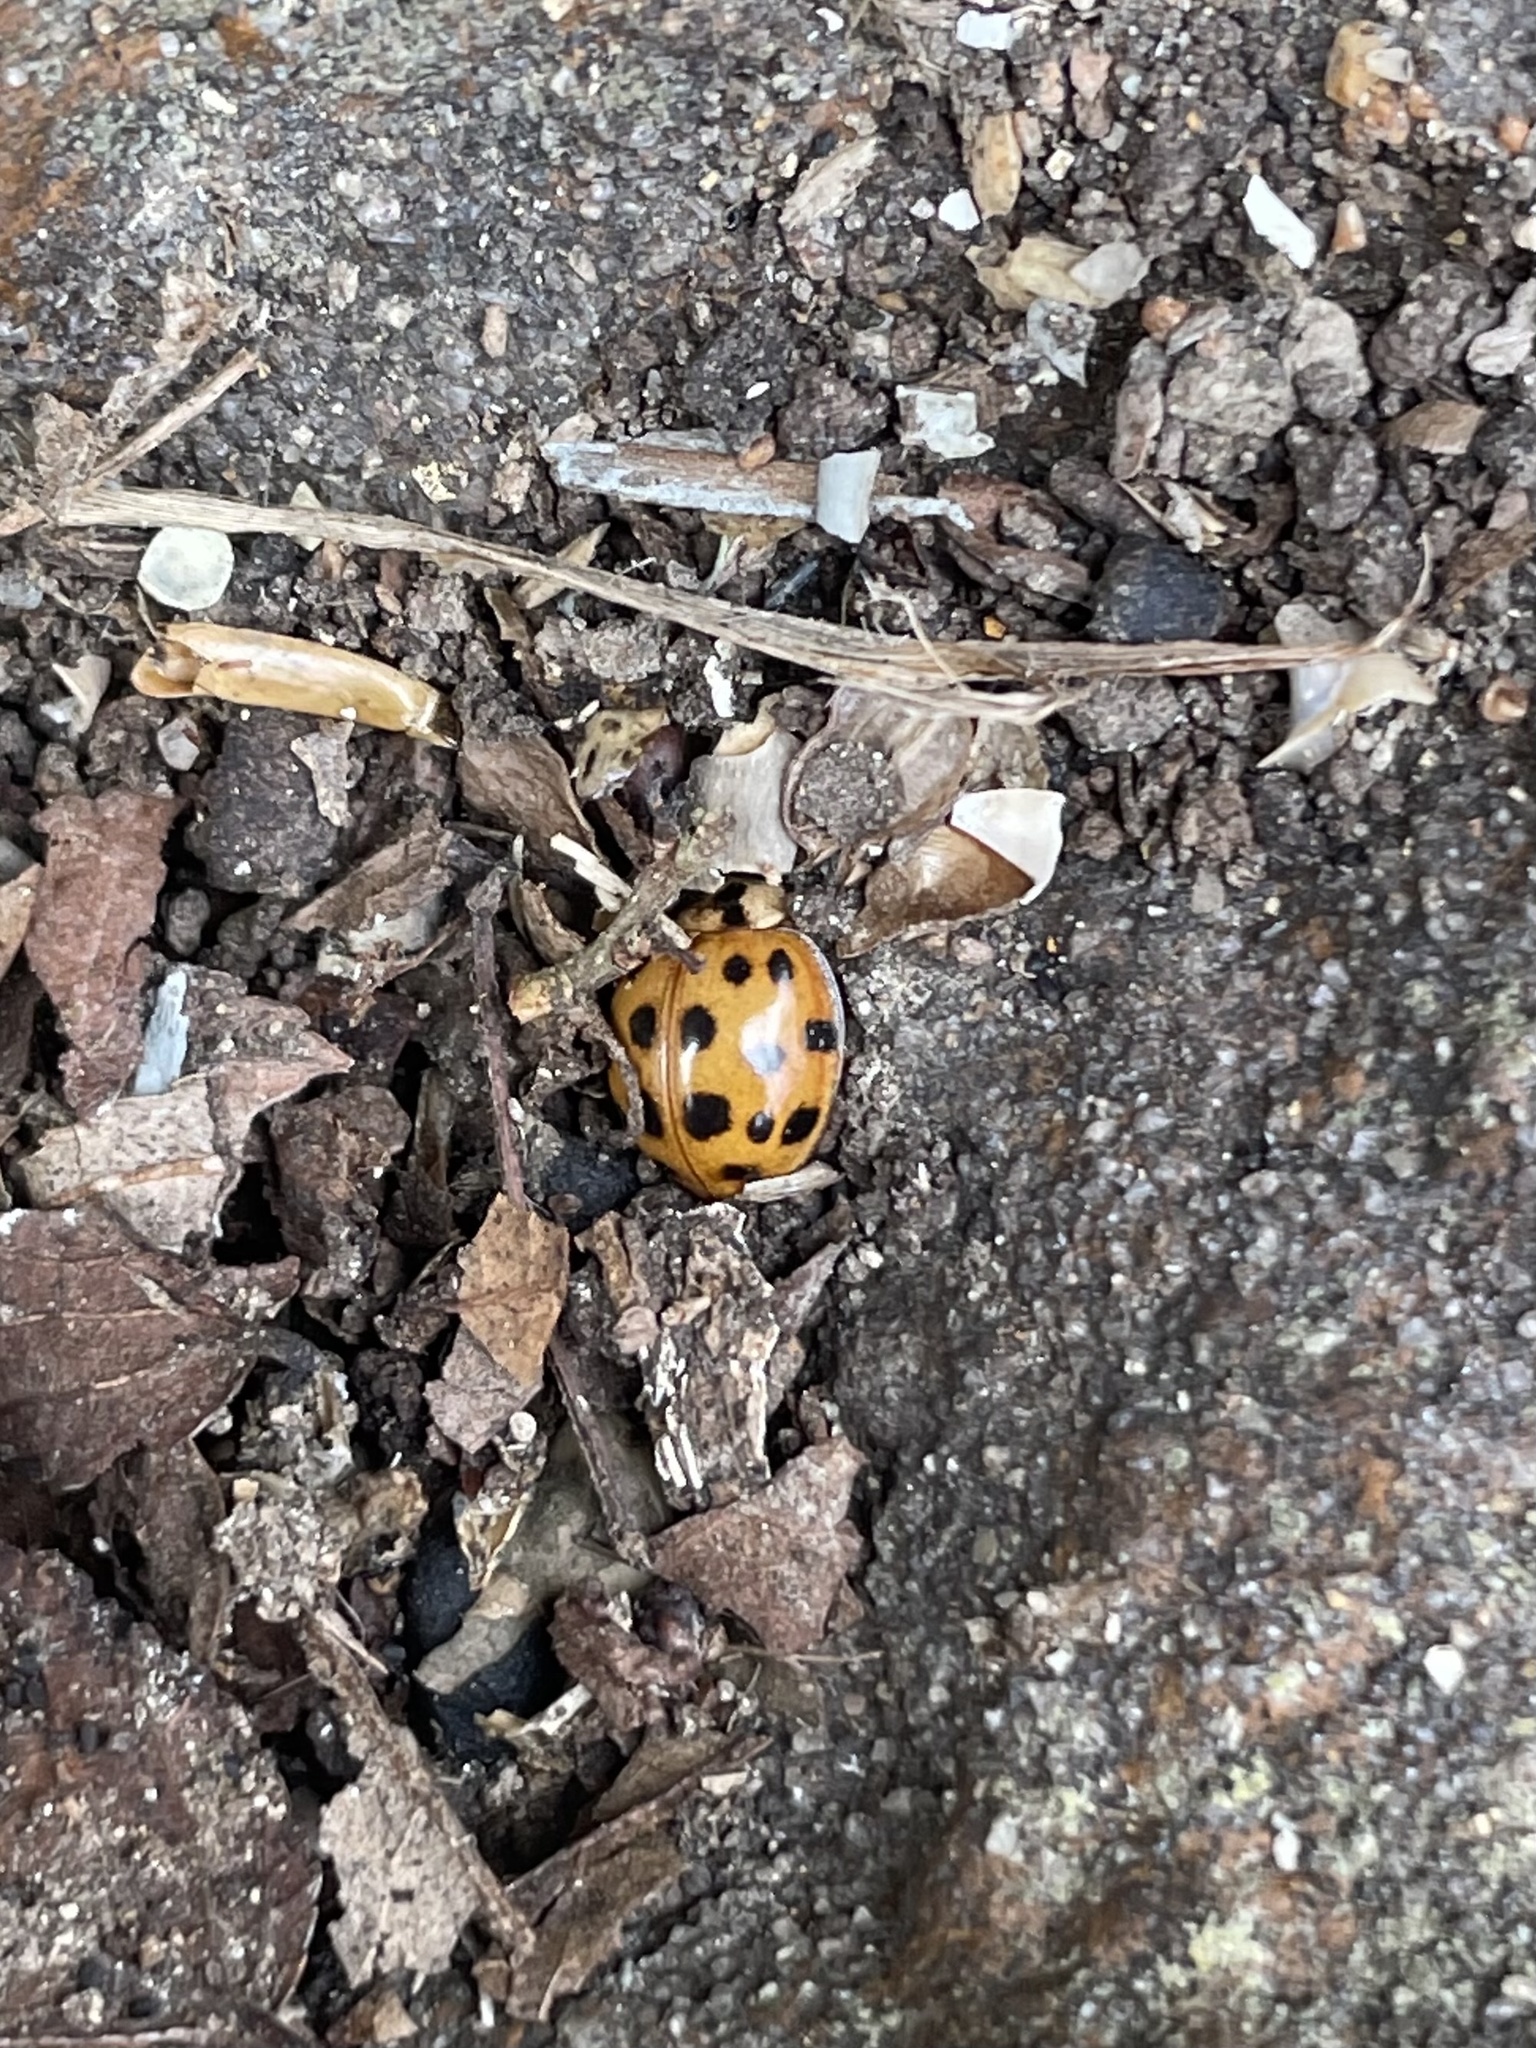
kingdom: Animalia
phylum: Arthropoda
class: Insecta
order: Coleoptera
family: Coccinellidae
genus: Harmonia
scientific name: Harmonia axyridis
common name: Harlequin ladybird
